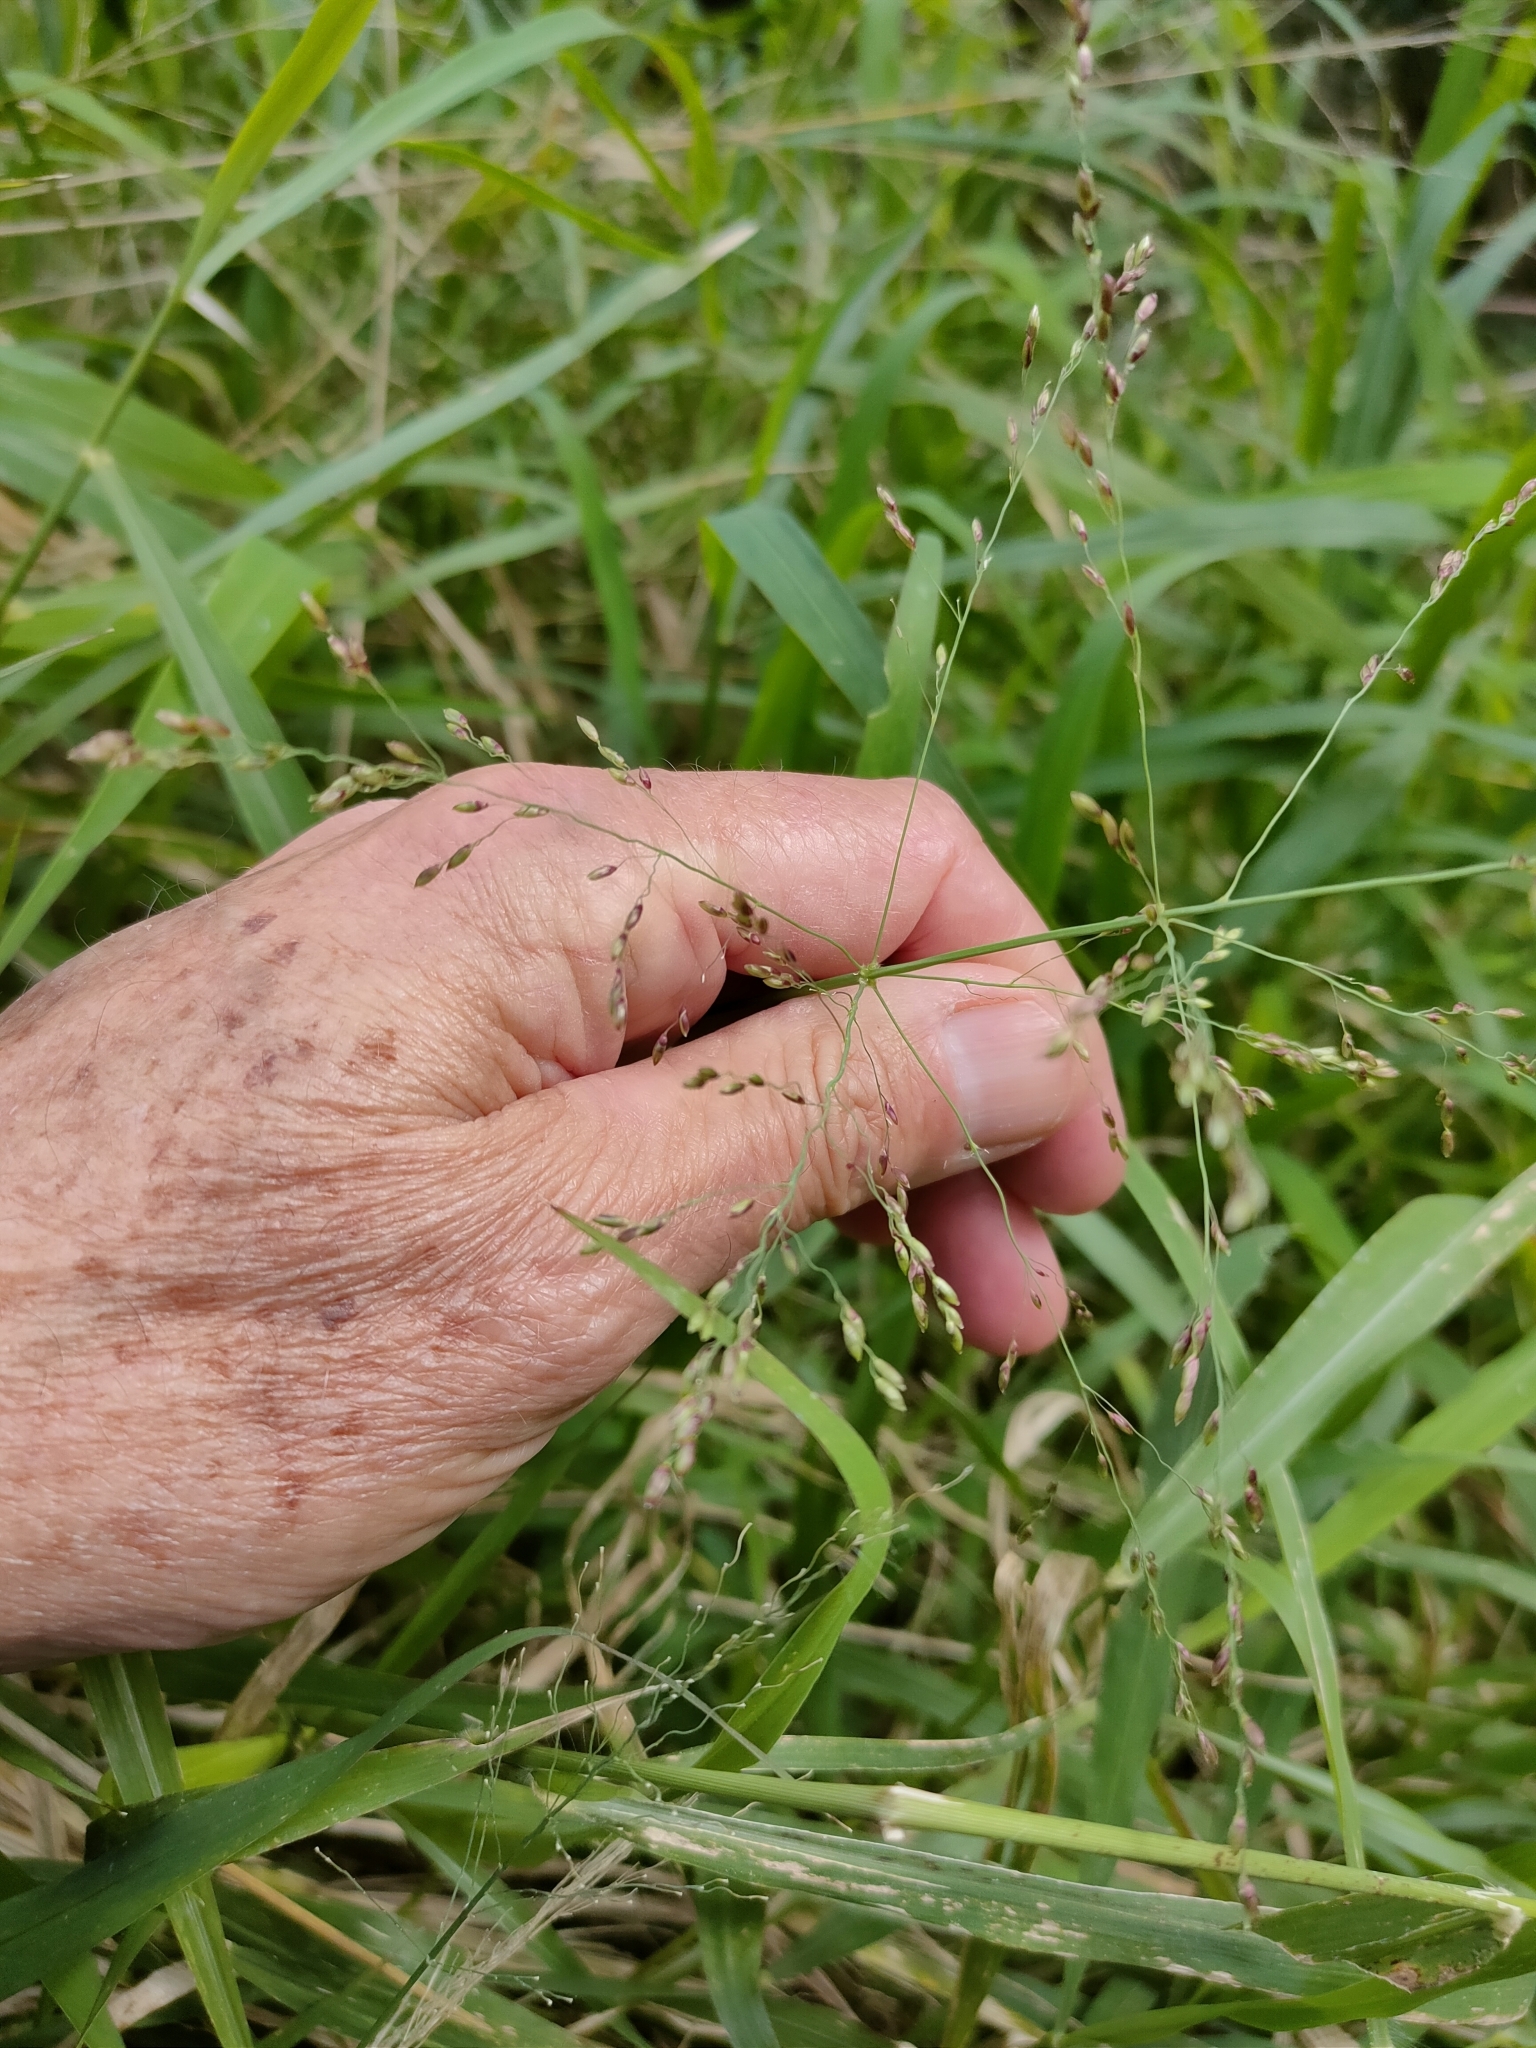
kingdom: Plantae
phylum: Tracheophyta
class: Liliopsida
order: Poales
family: Poaceae
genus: Megathyrsus
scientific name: Megathyrsus maximus
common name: Guineagrass
